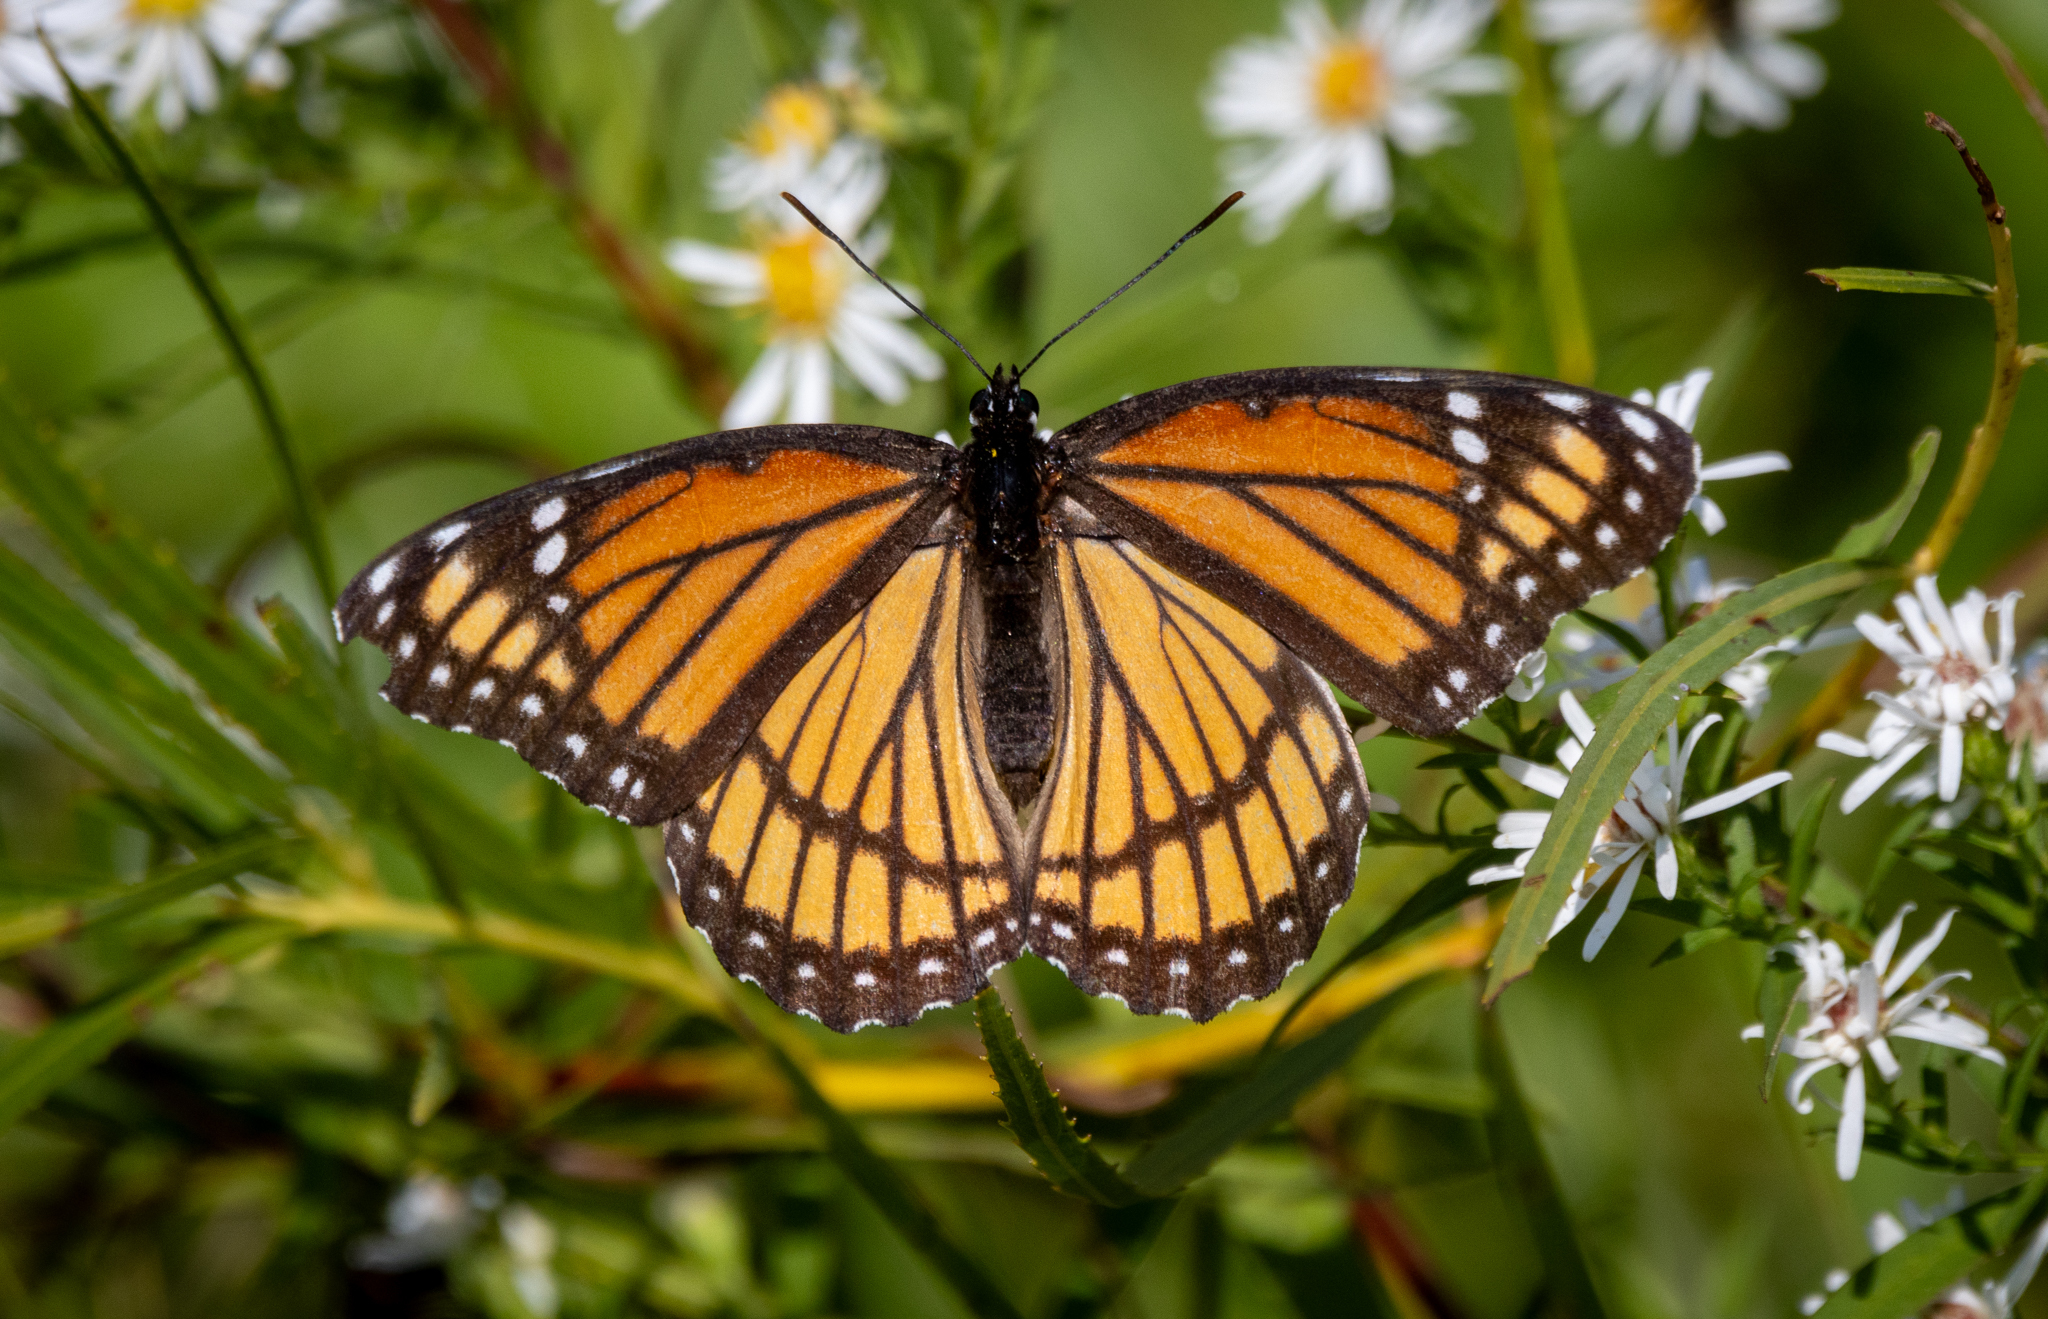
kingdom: Animalia
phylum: Arthropoda
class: Insecta
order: Lepidoptera
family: Nymphalidae
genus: Limenitis
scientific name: Limenitis archippus
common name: Viceroy
